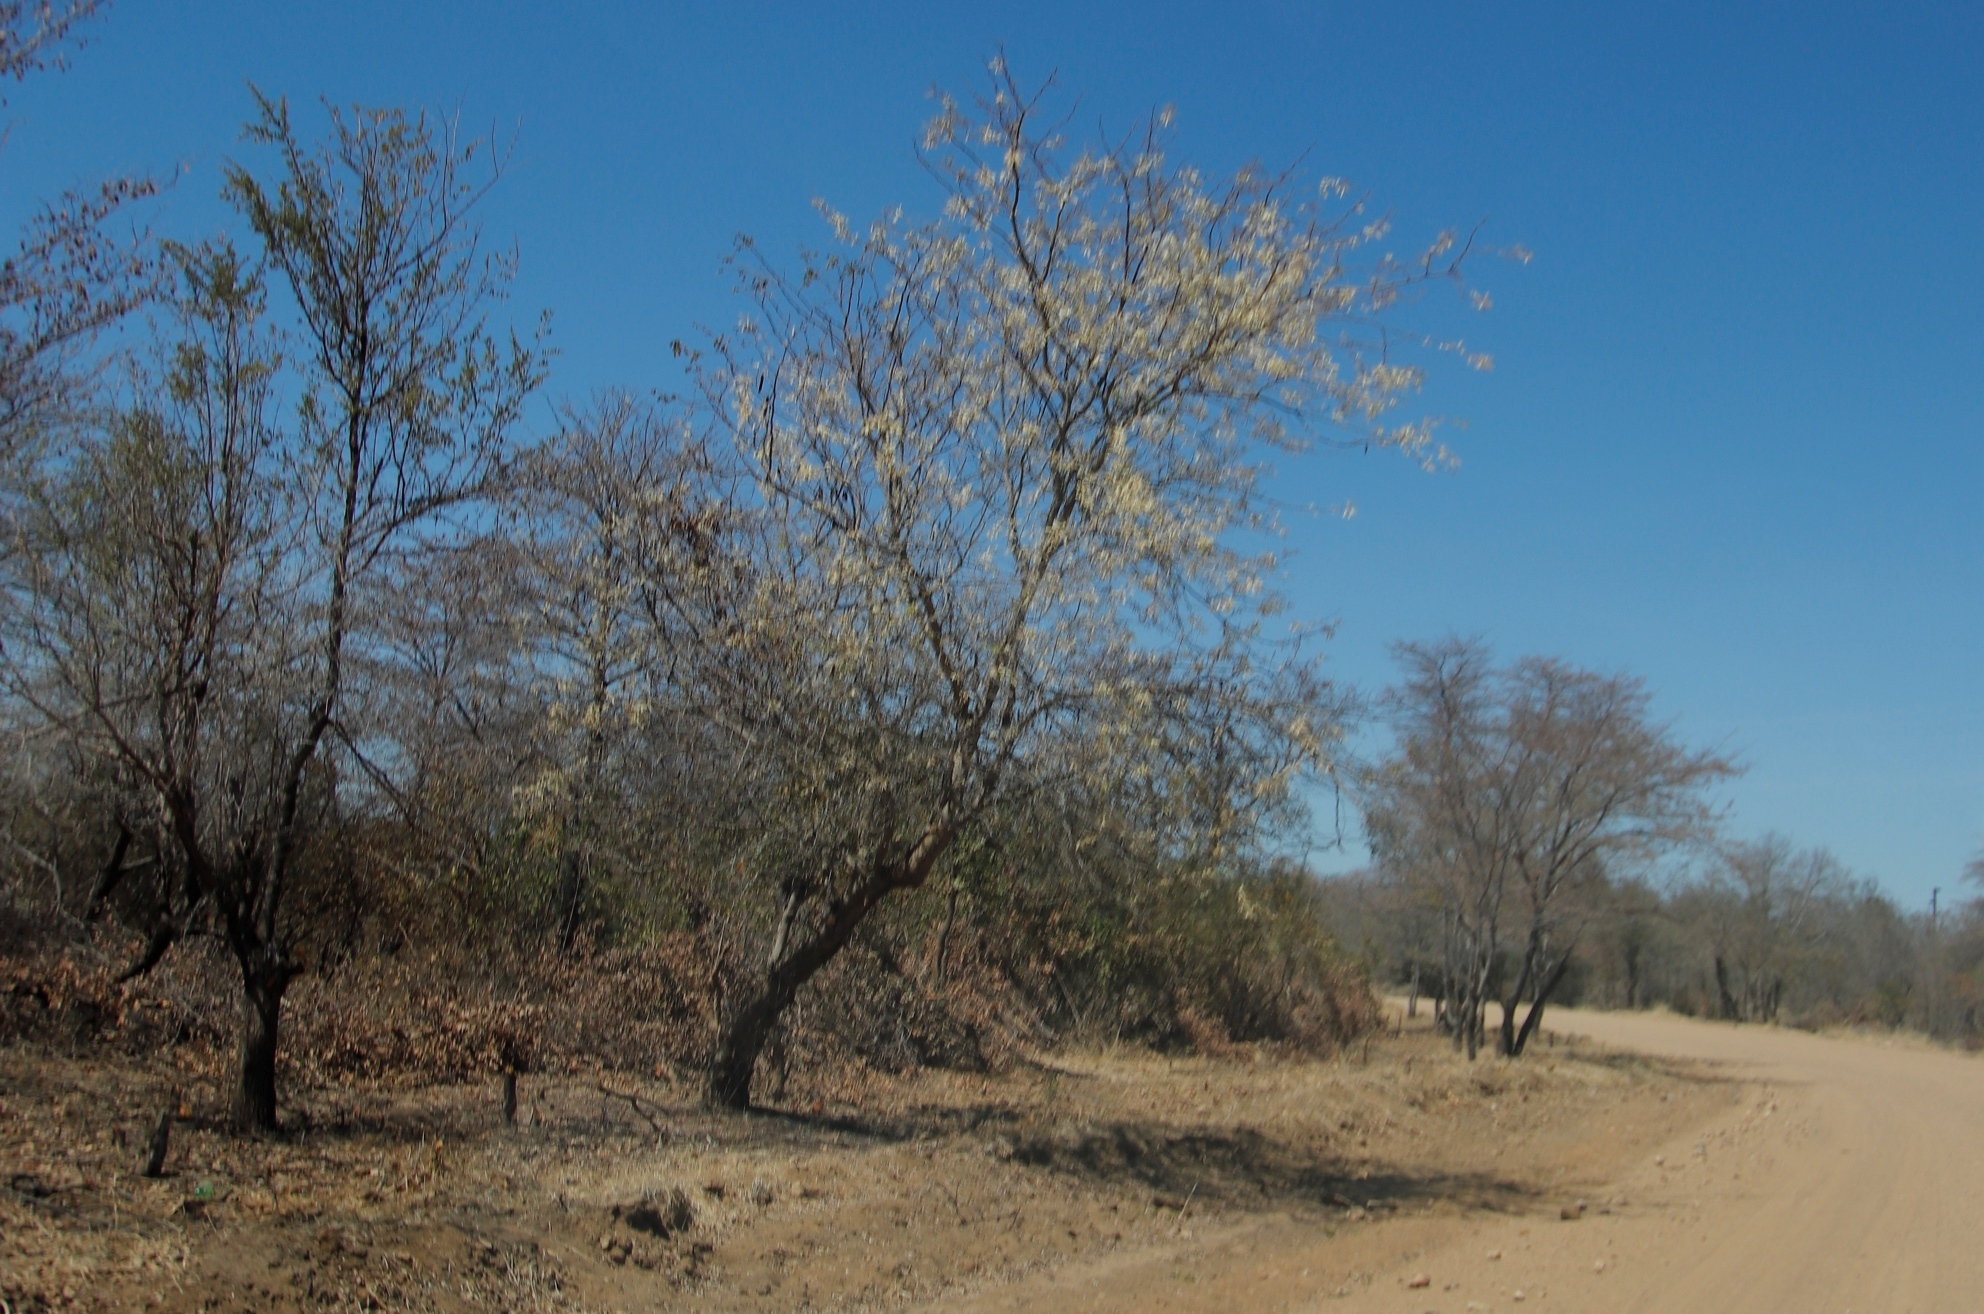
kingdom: Plantae
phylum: Tracheophyta
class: Magnoliopsida
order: Fabales
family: Fabaceae
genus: Senegalia
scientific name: Senegalia nigrescens
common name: Knobthorn
